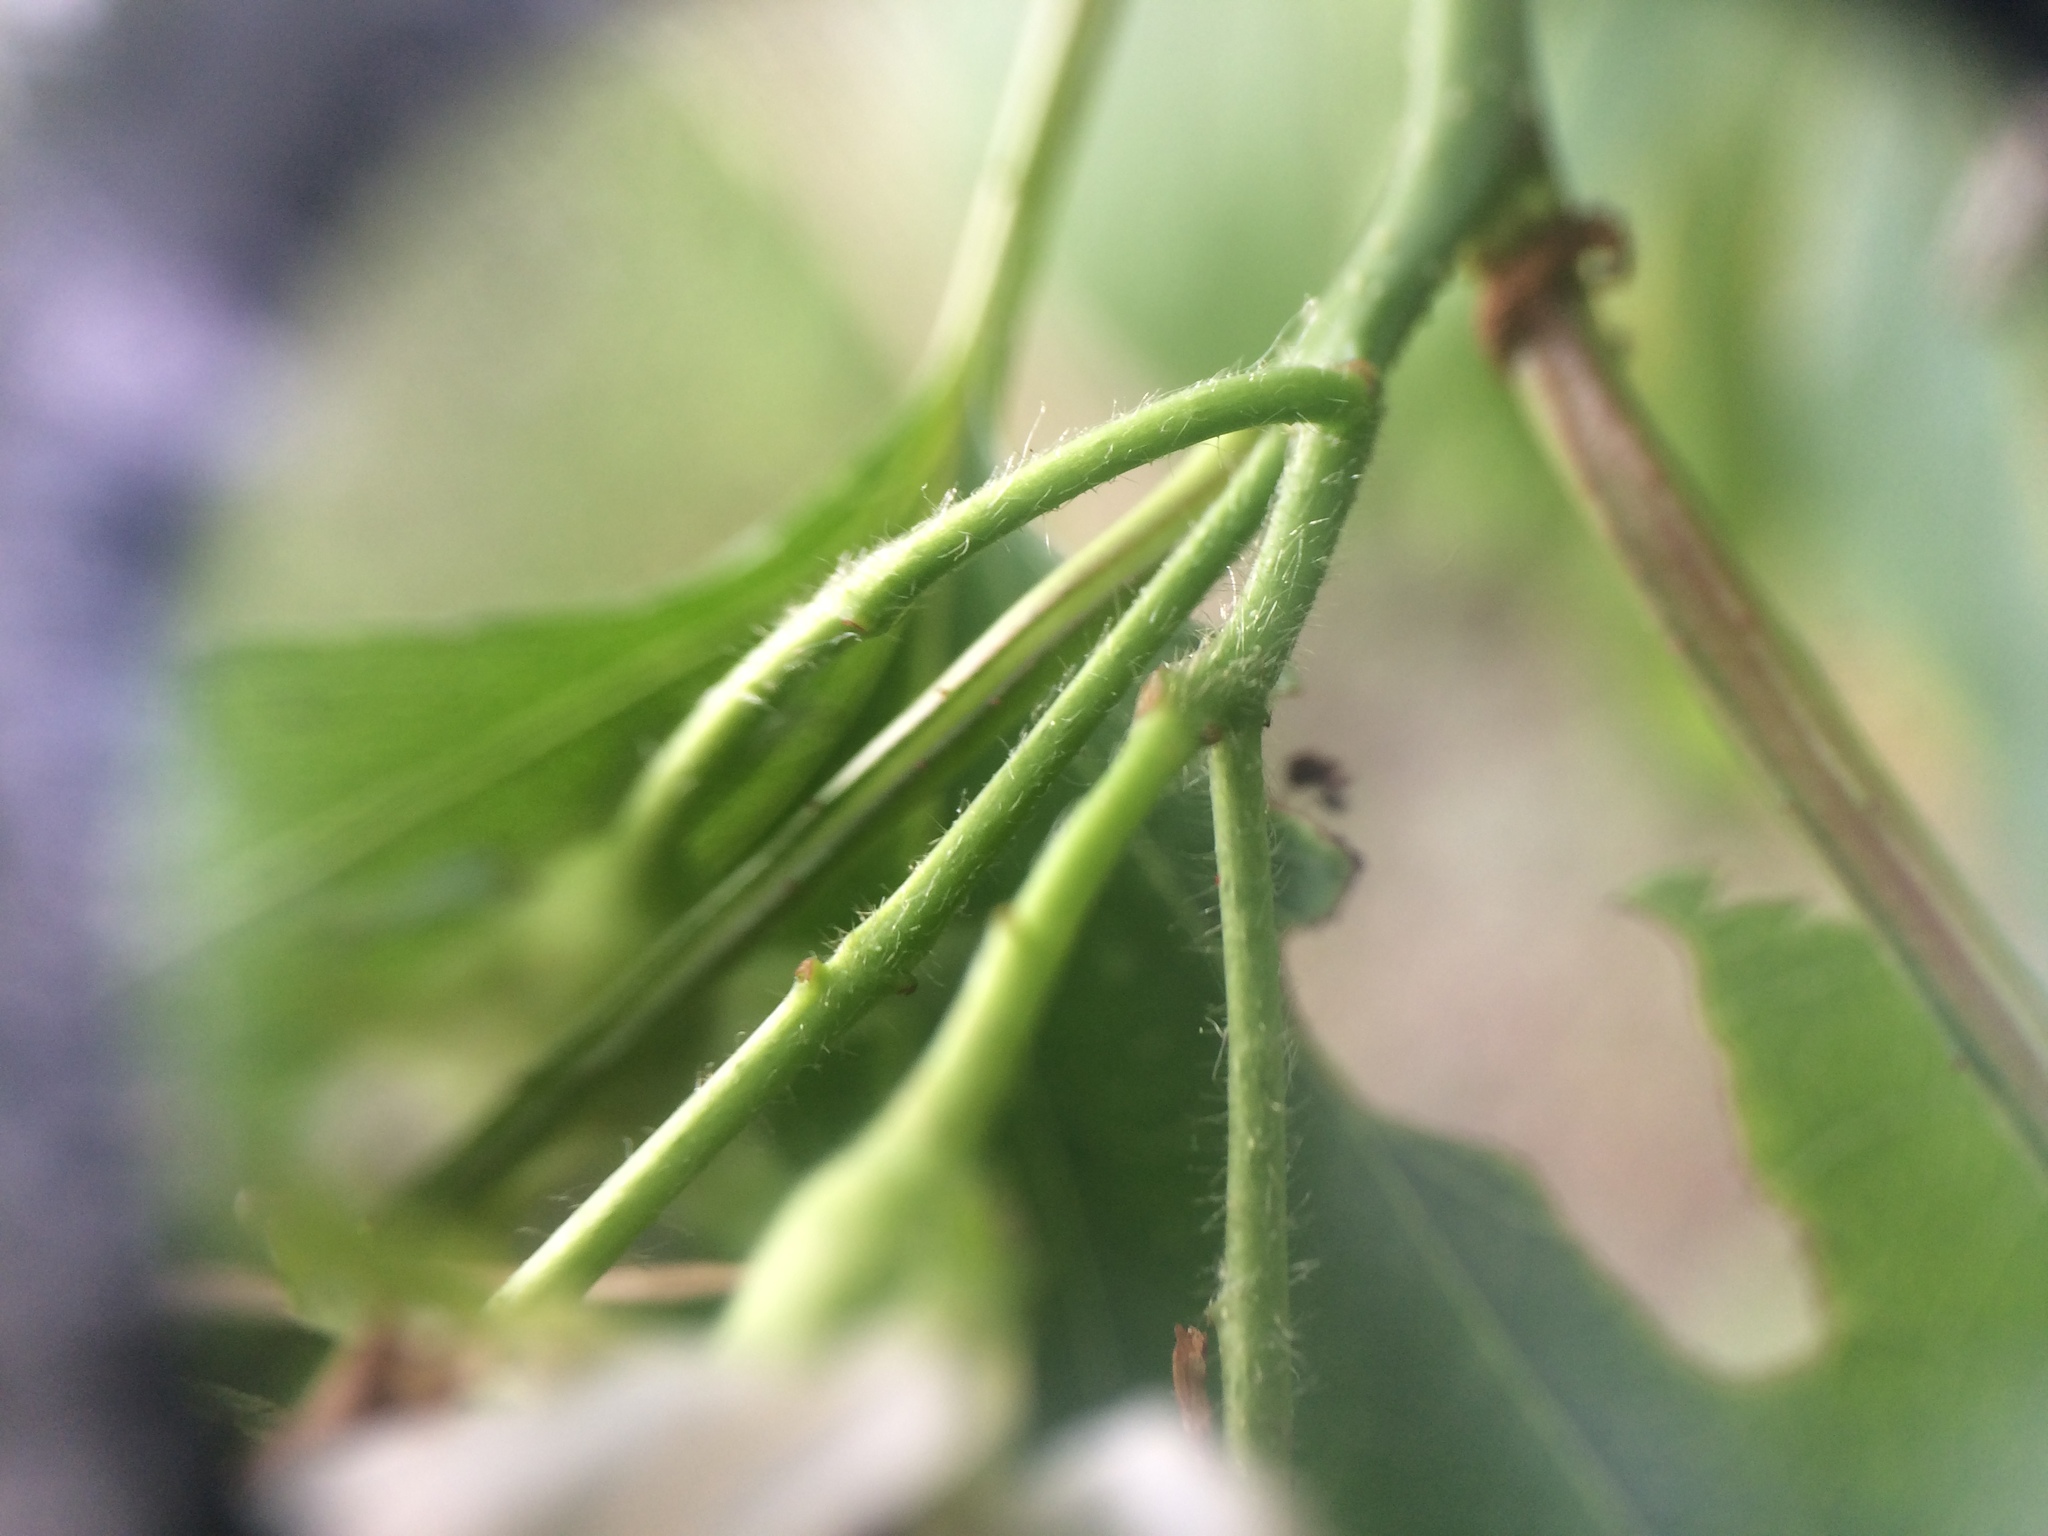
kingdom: Plantae
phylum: Tracheophyta
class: Magnoliopsida
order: Rosales
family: Rosaceae
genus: Crataegus
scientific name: Crataegus schuettei
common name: Schuette's hawthorn
